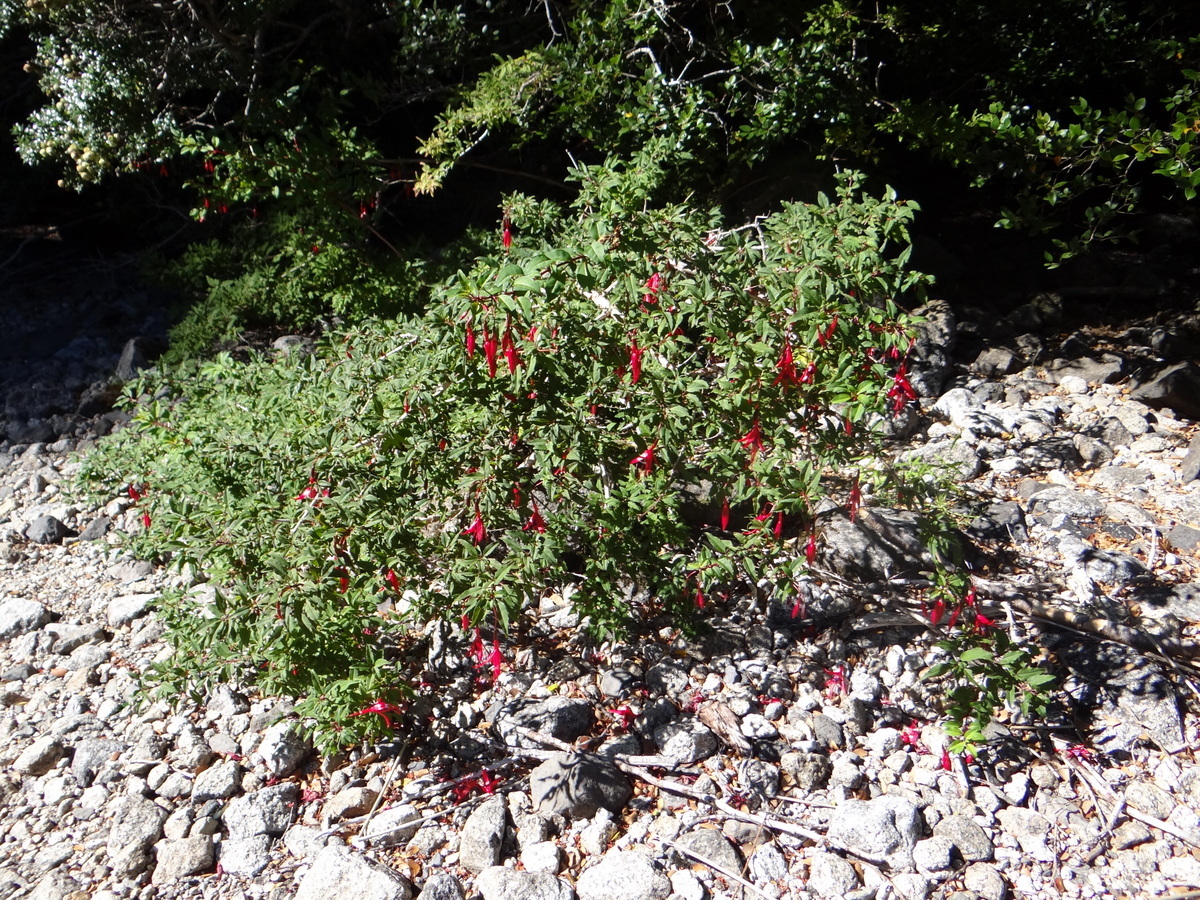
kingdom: Plantae
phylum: Tracheophyta
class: Magnoliopsida
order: Myrtales
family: Onagraceae
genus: Fuchsia
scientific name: Fuchsia magellanica
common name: Hardy fuchsia
